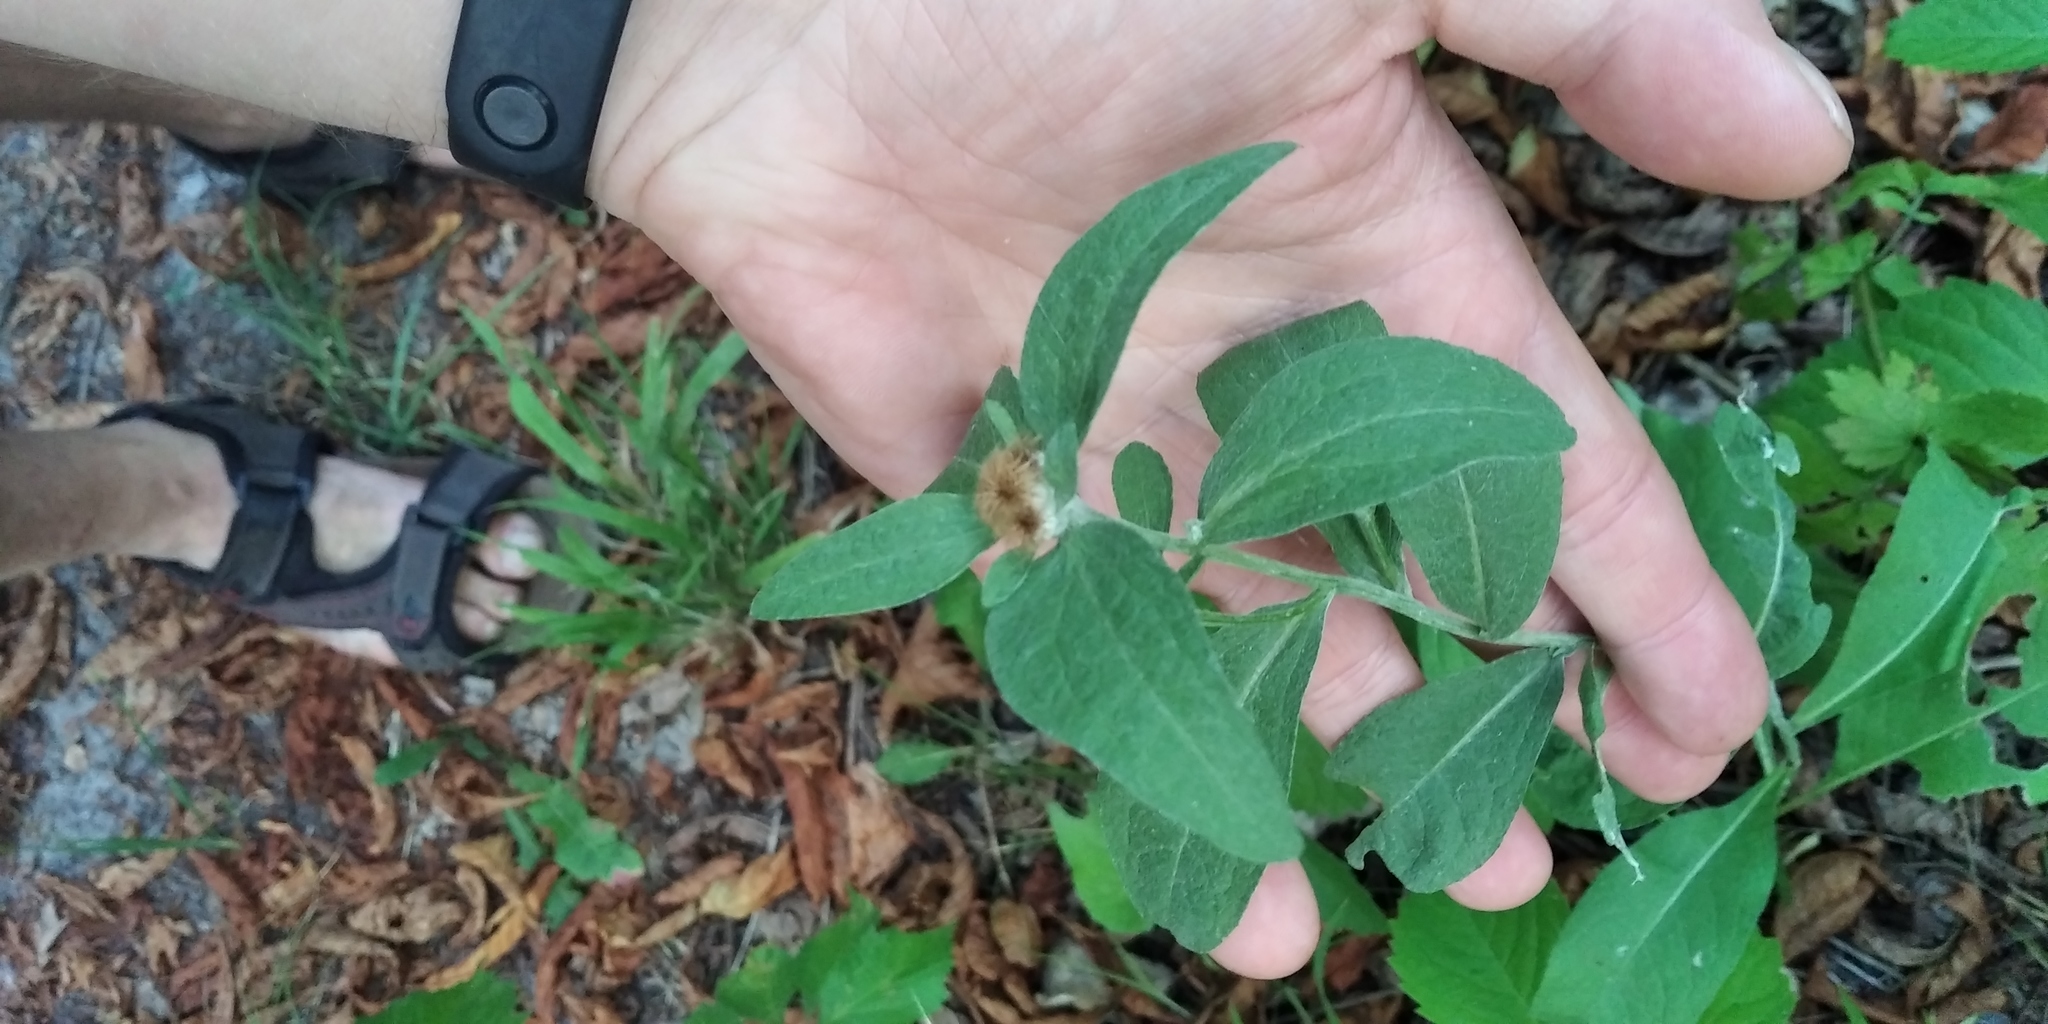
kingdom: Plantae
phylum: Tracheophyta
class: Magnoliopsida
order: Asterales
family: Asteraceae
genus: Centaurea
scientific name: Centaurea pseudophrygia
